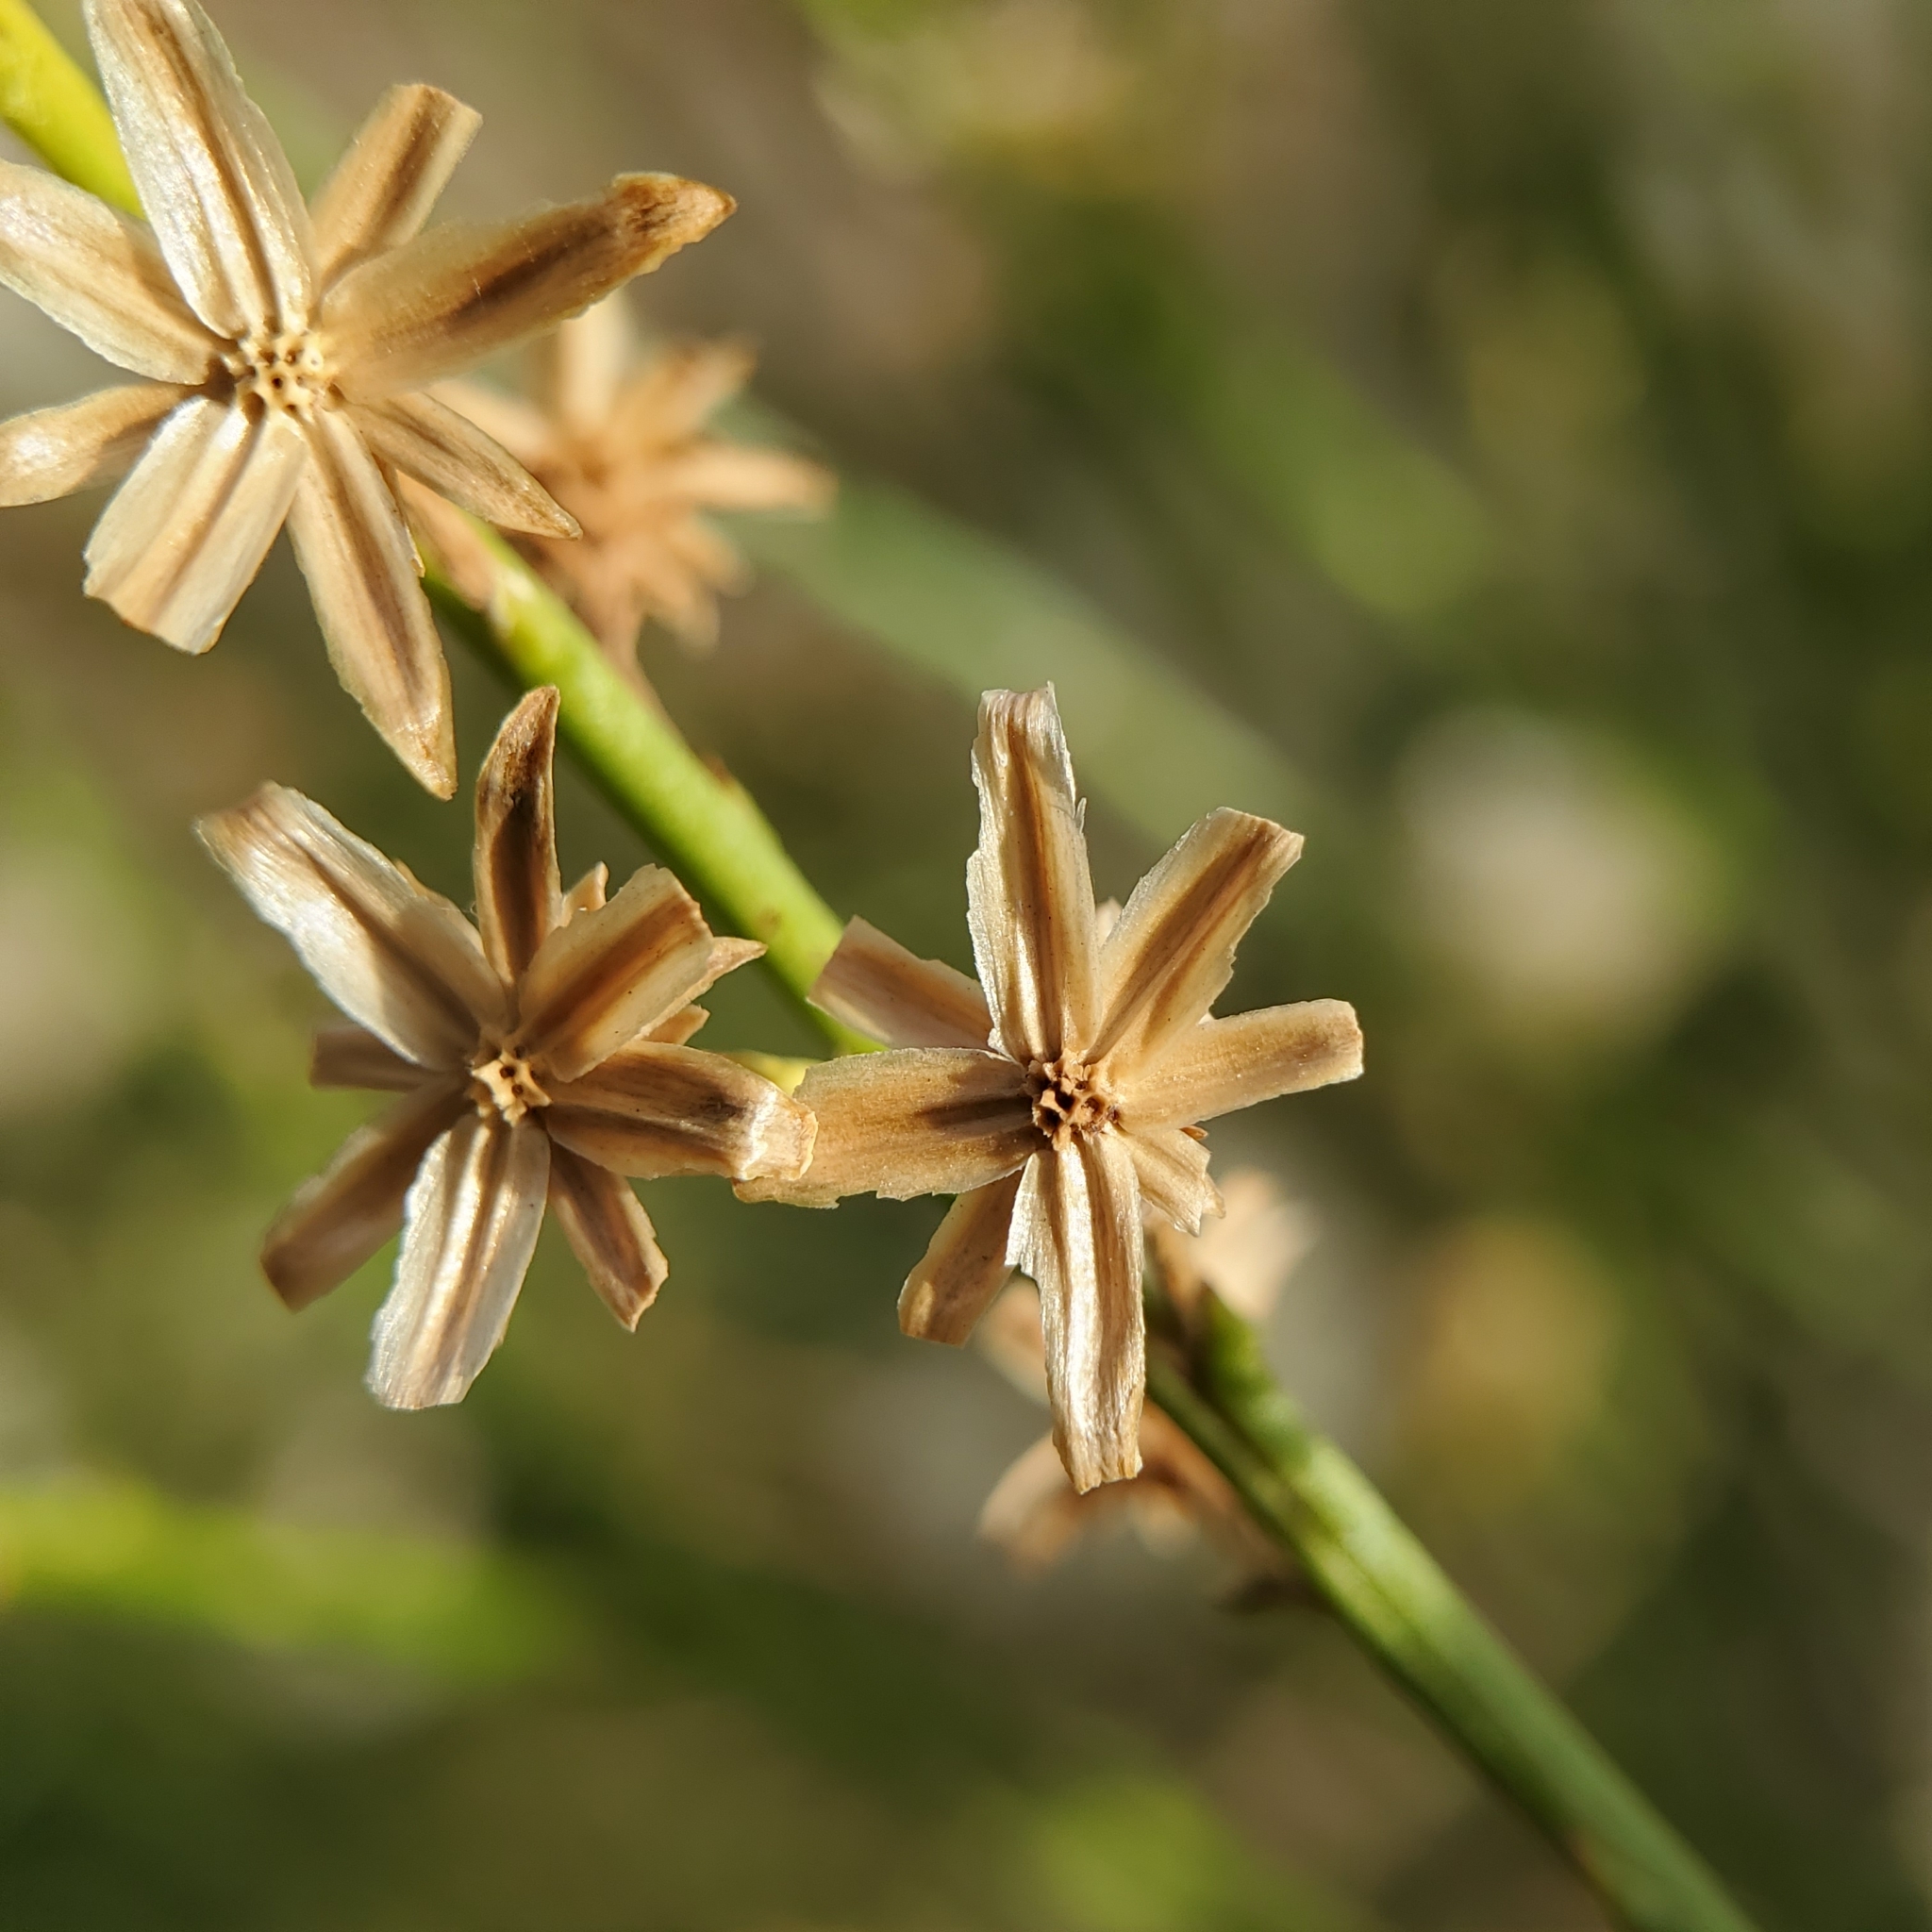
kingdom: Plantae
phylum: Tracheophyta
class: Magnoliopsida
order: Asterales
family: Asteraceae
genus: Lepidospartum
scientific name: Lepidospartum squamatum
